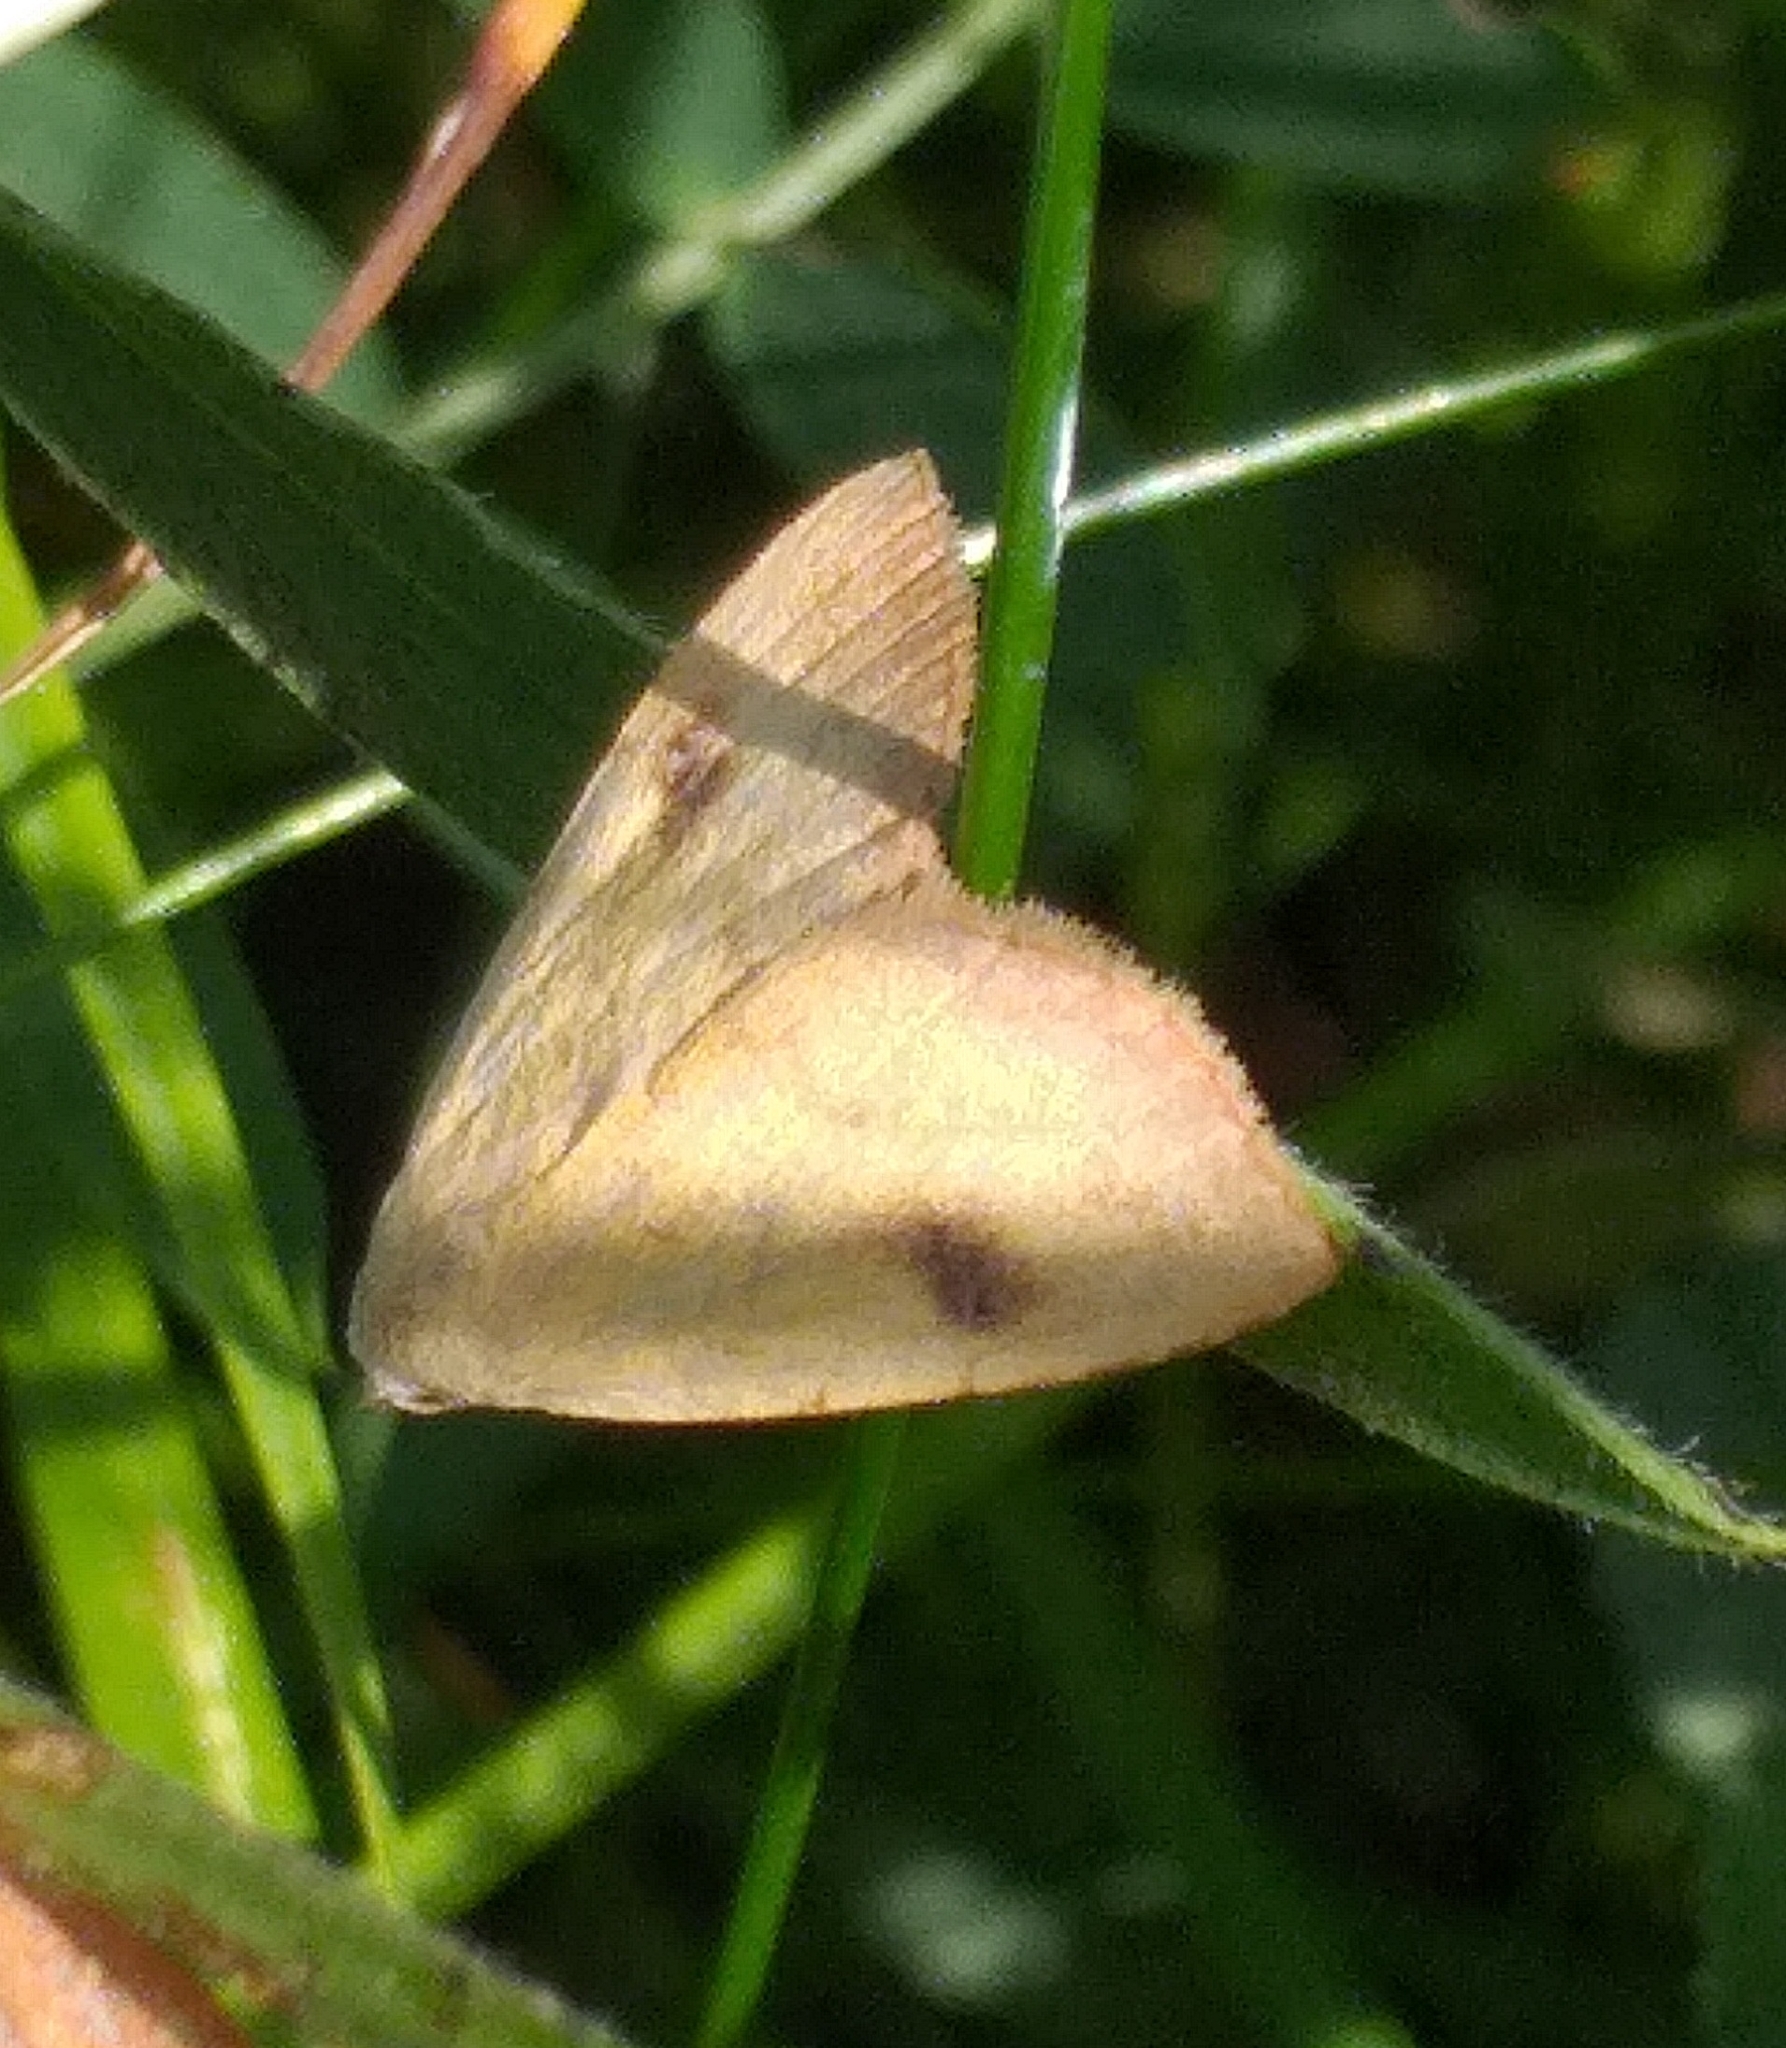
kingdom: Animalia
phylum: Arthropoda
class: Insecta
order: Lepidoptera
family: Erebidae
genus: Rivula
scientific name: Rivula sericealis
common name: Straw dot
